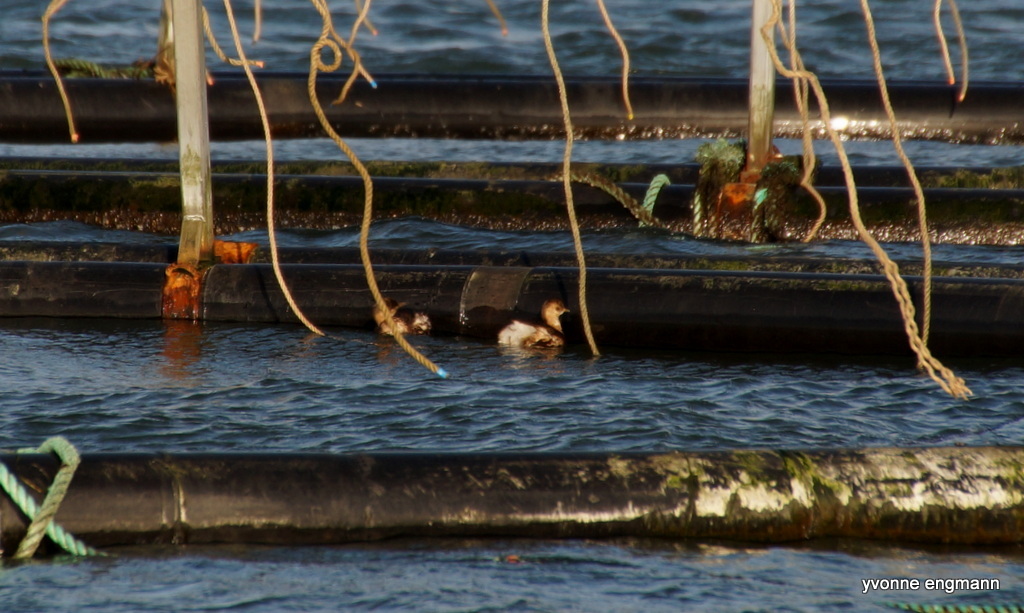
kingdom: Animalia
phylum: Chordata
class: Aves
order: Podicipediformes
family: Podicipedidae
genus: Tachybaptus
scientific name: Tachybaptus ruficollis
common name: Little grebe
